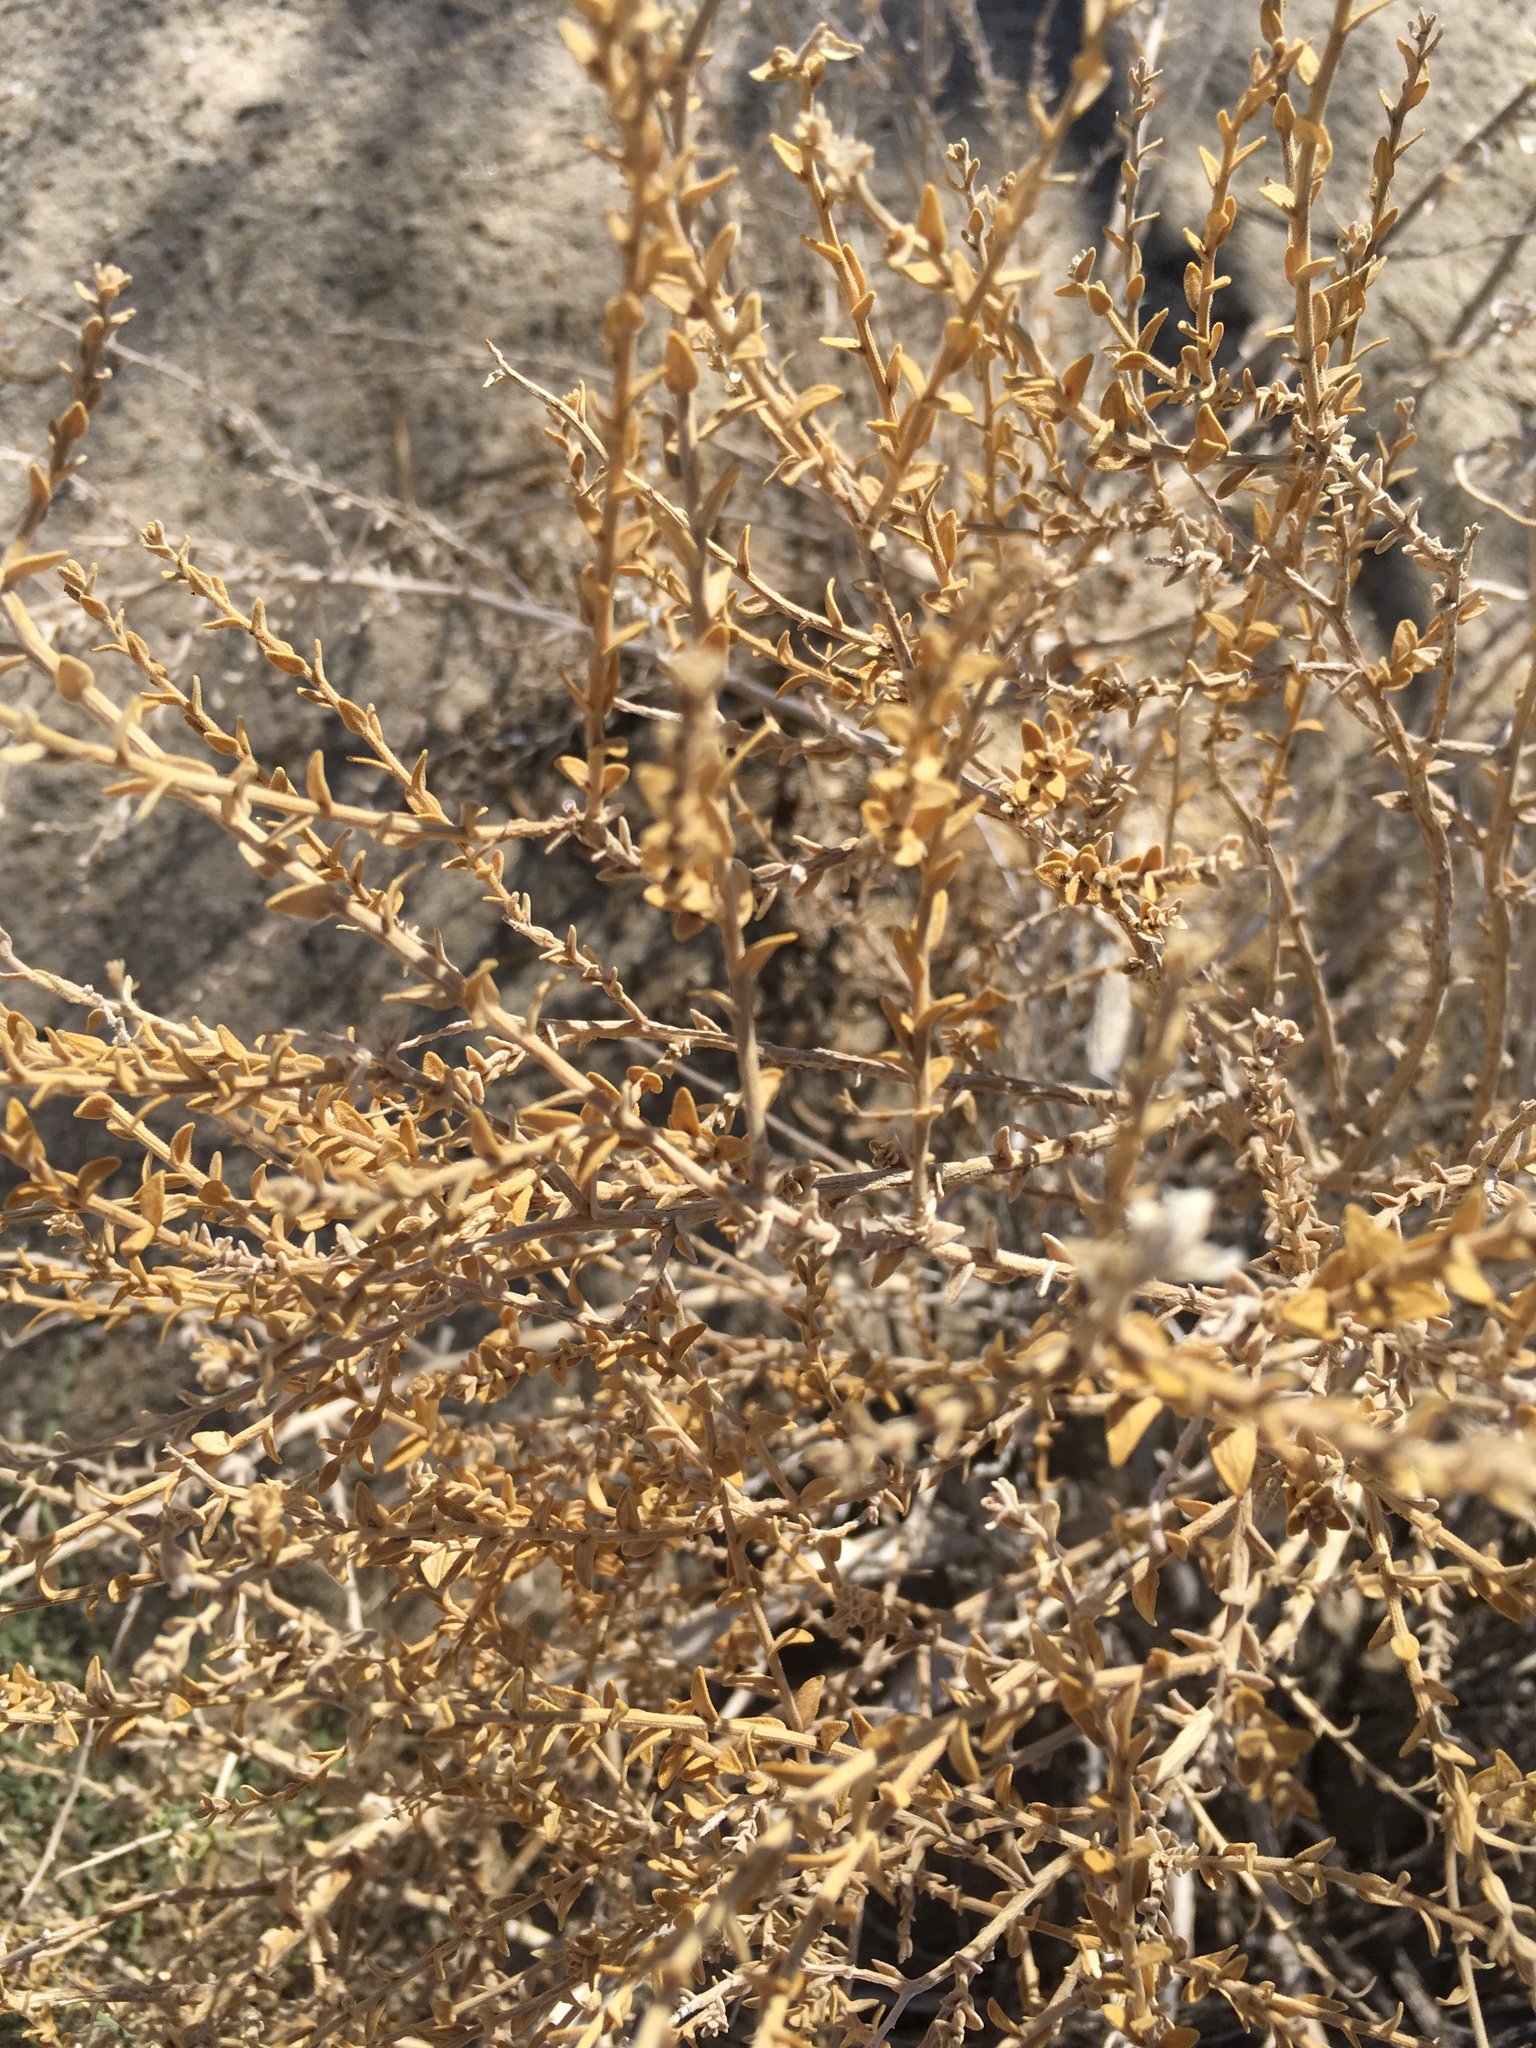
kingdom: Plantae
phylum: Tracheophyta
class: Magnoliopsida
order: Cornales
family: Loasaceae
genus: Petalonyx
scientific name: Petalonyx thurberi
